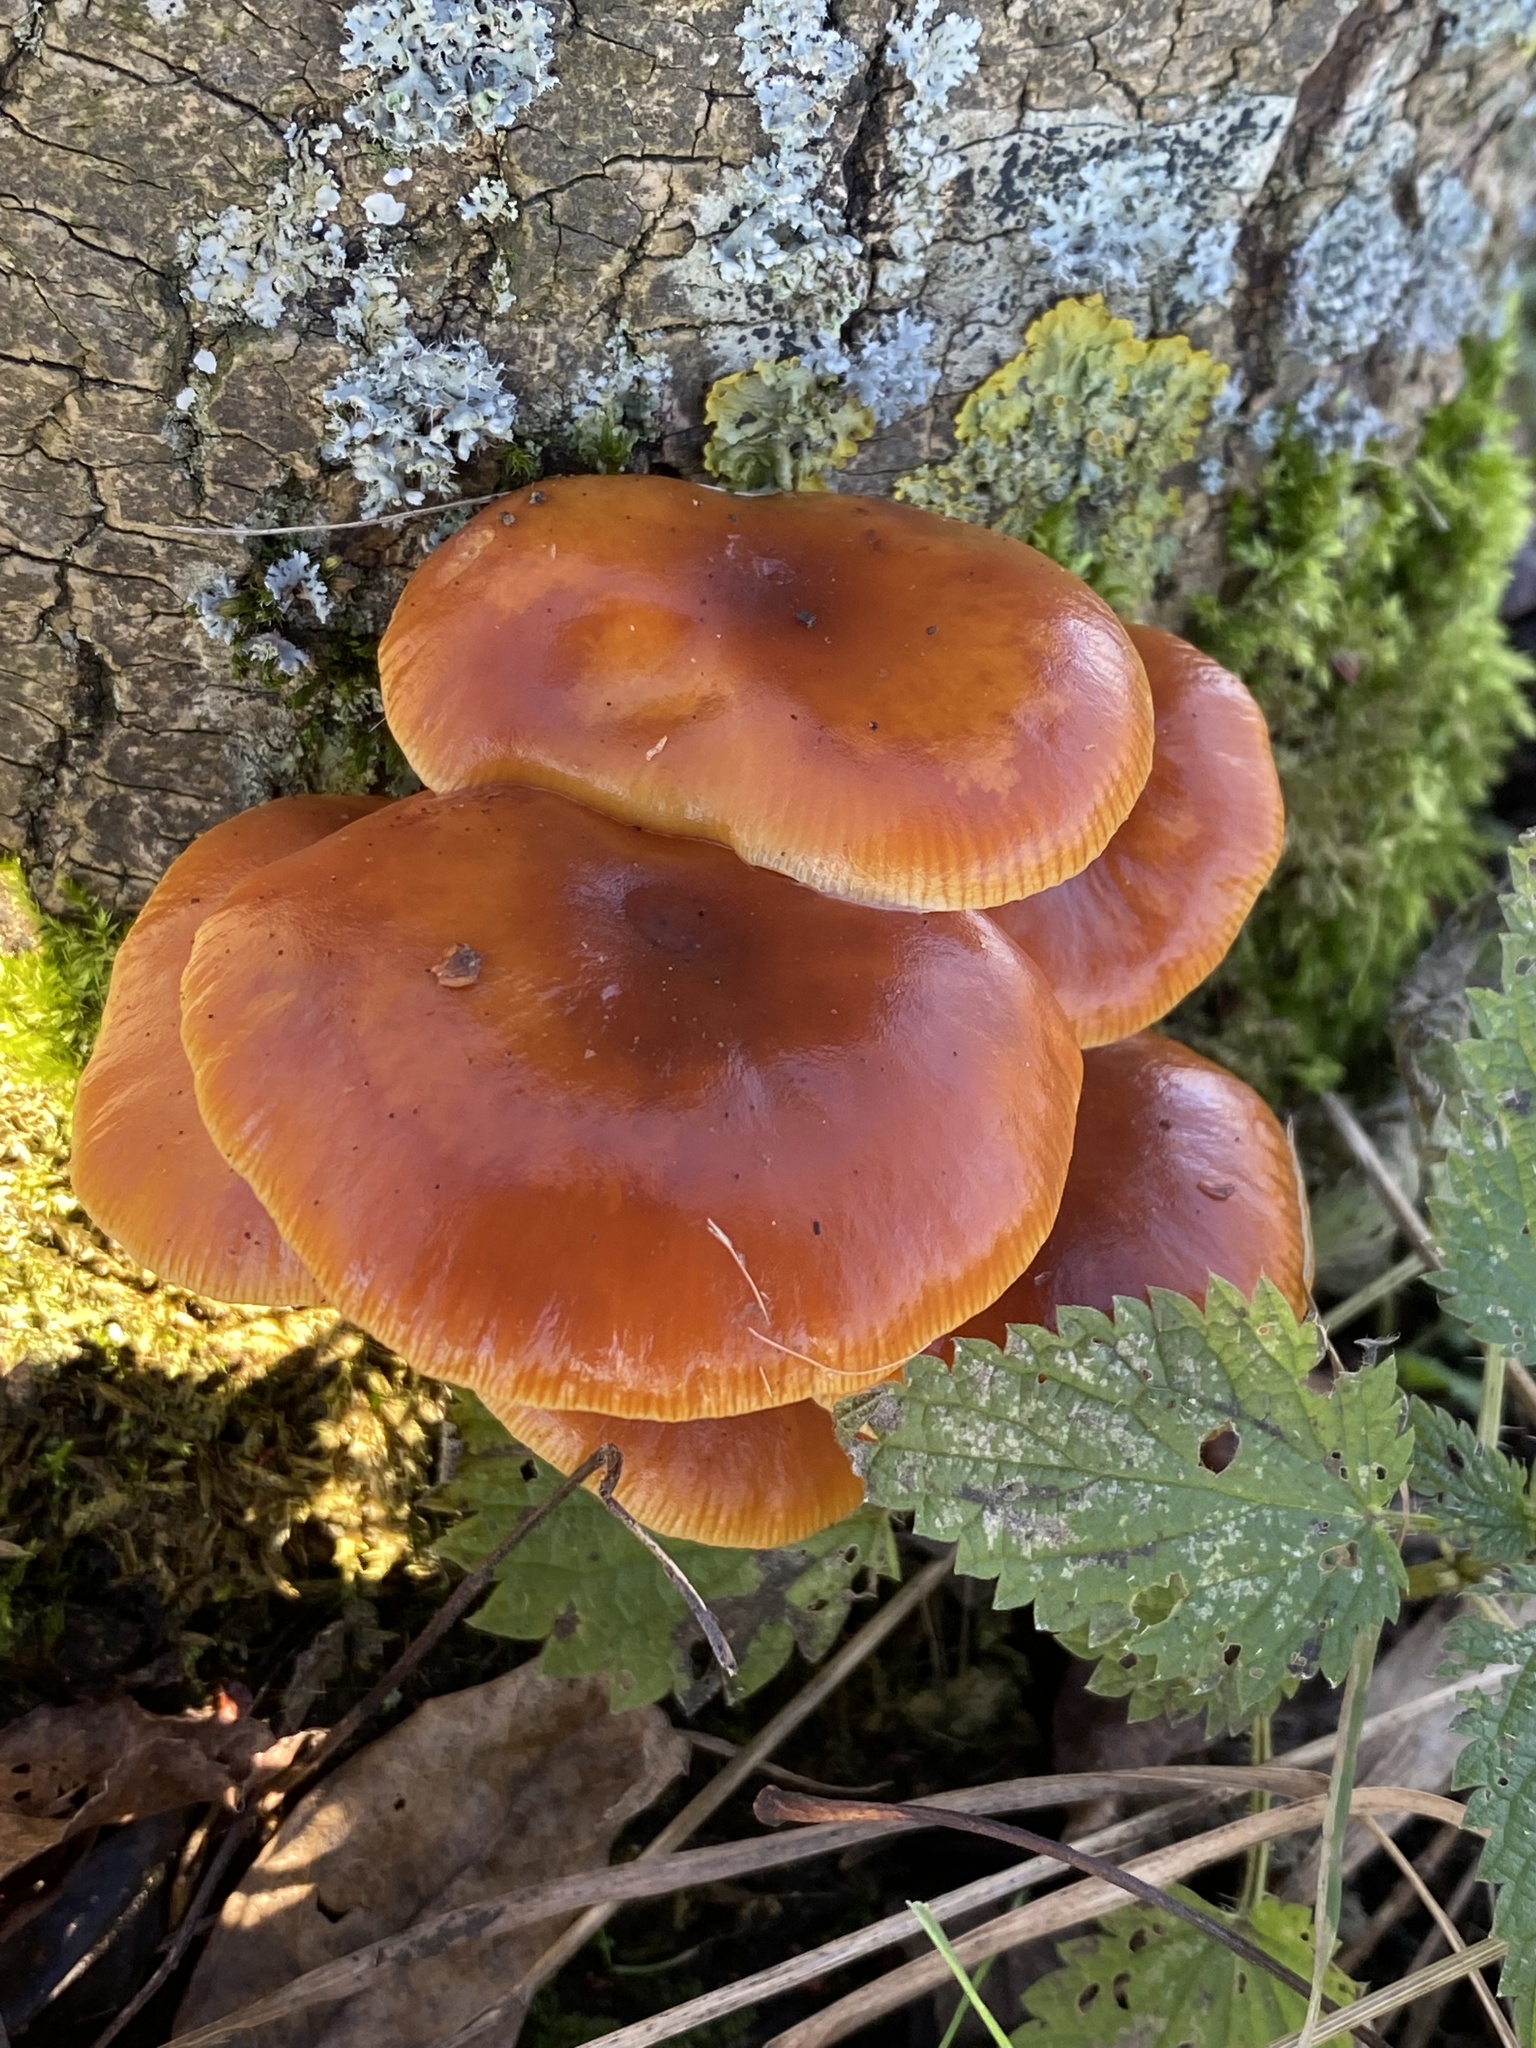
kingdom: Fungi
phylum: Basidiomycota
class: Agaricomycetes
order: Agaricales
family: Physalacriaceae
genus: Flammulina
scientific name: Flammulina
